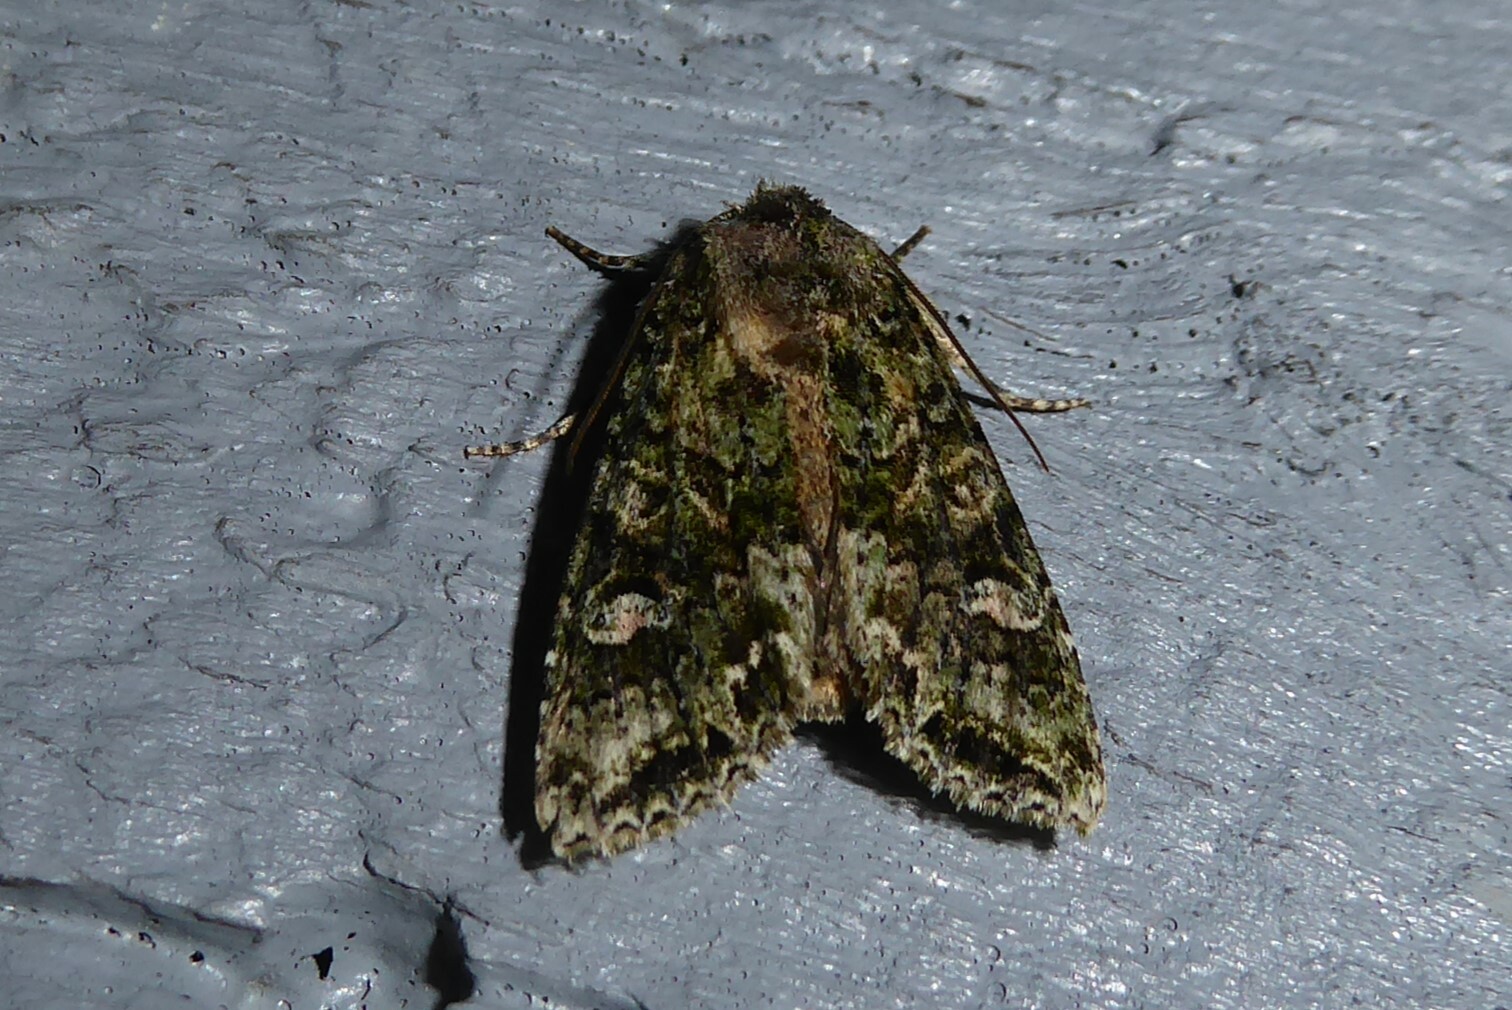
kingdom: Animalia
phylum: Arthropoda
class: Insecta
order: Lepidoptera
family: Noctuidae
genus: Ichneutica
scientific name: Ichneutica
